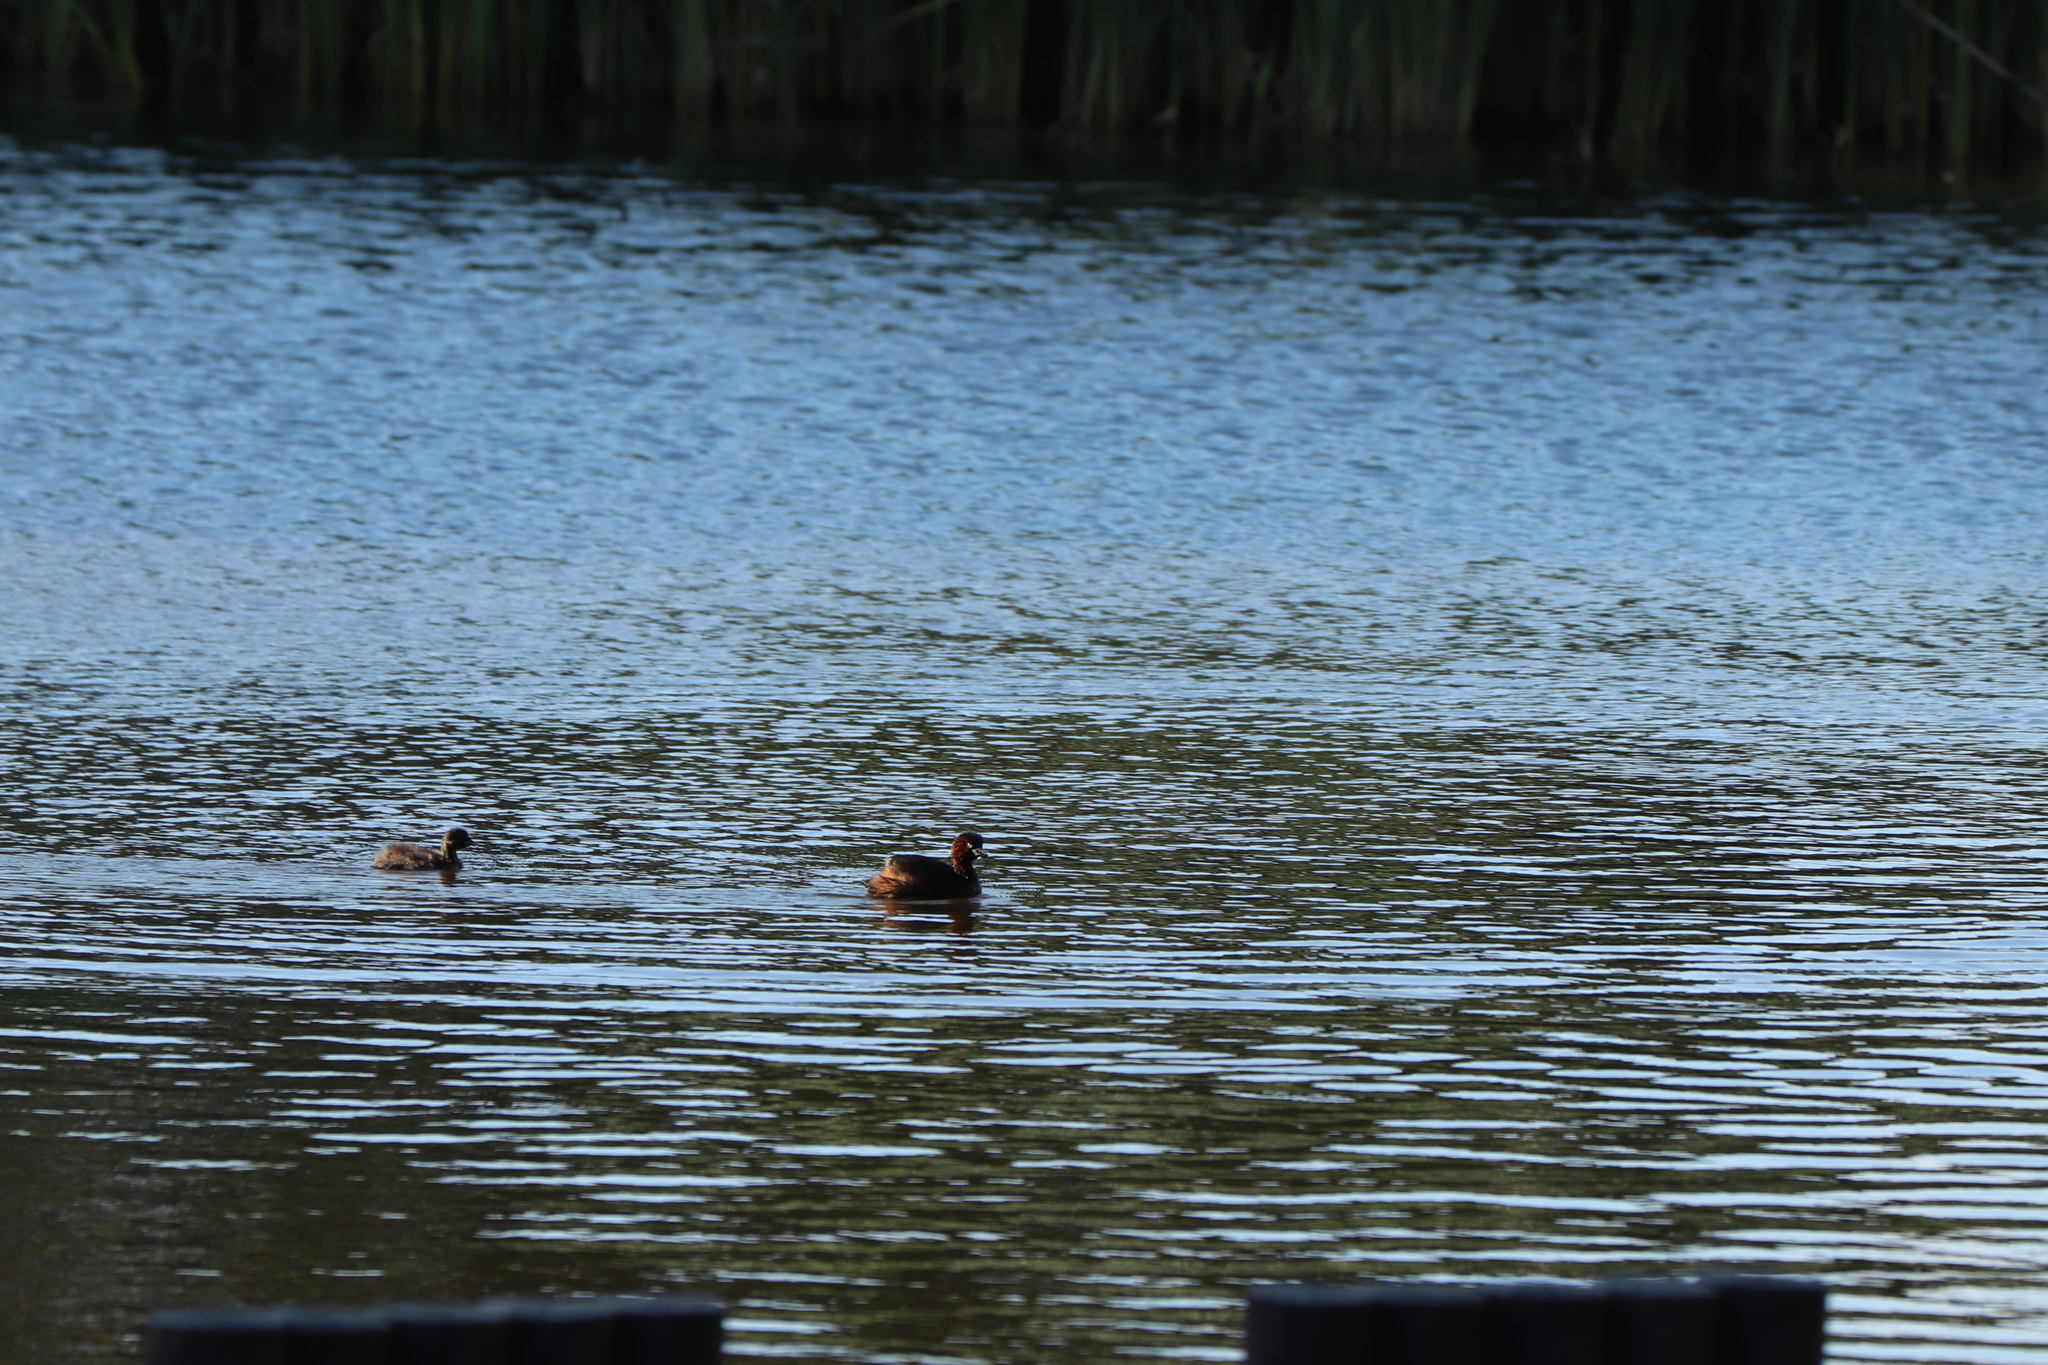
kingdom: Animalia
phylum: Chordata
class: Aves
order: Podicipediformes
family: Podicipedidae
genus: Tachybaptus
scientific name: Tachybaptus ruficollis
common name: Little grebe
